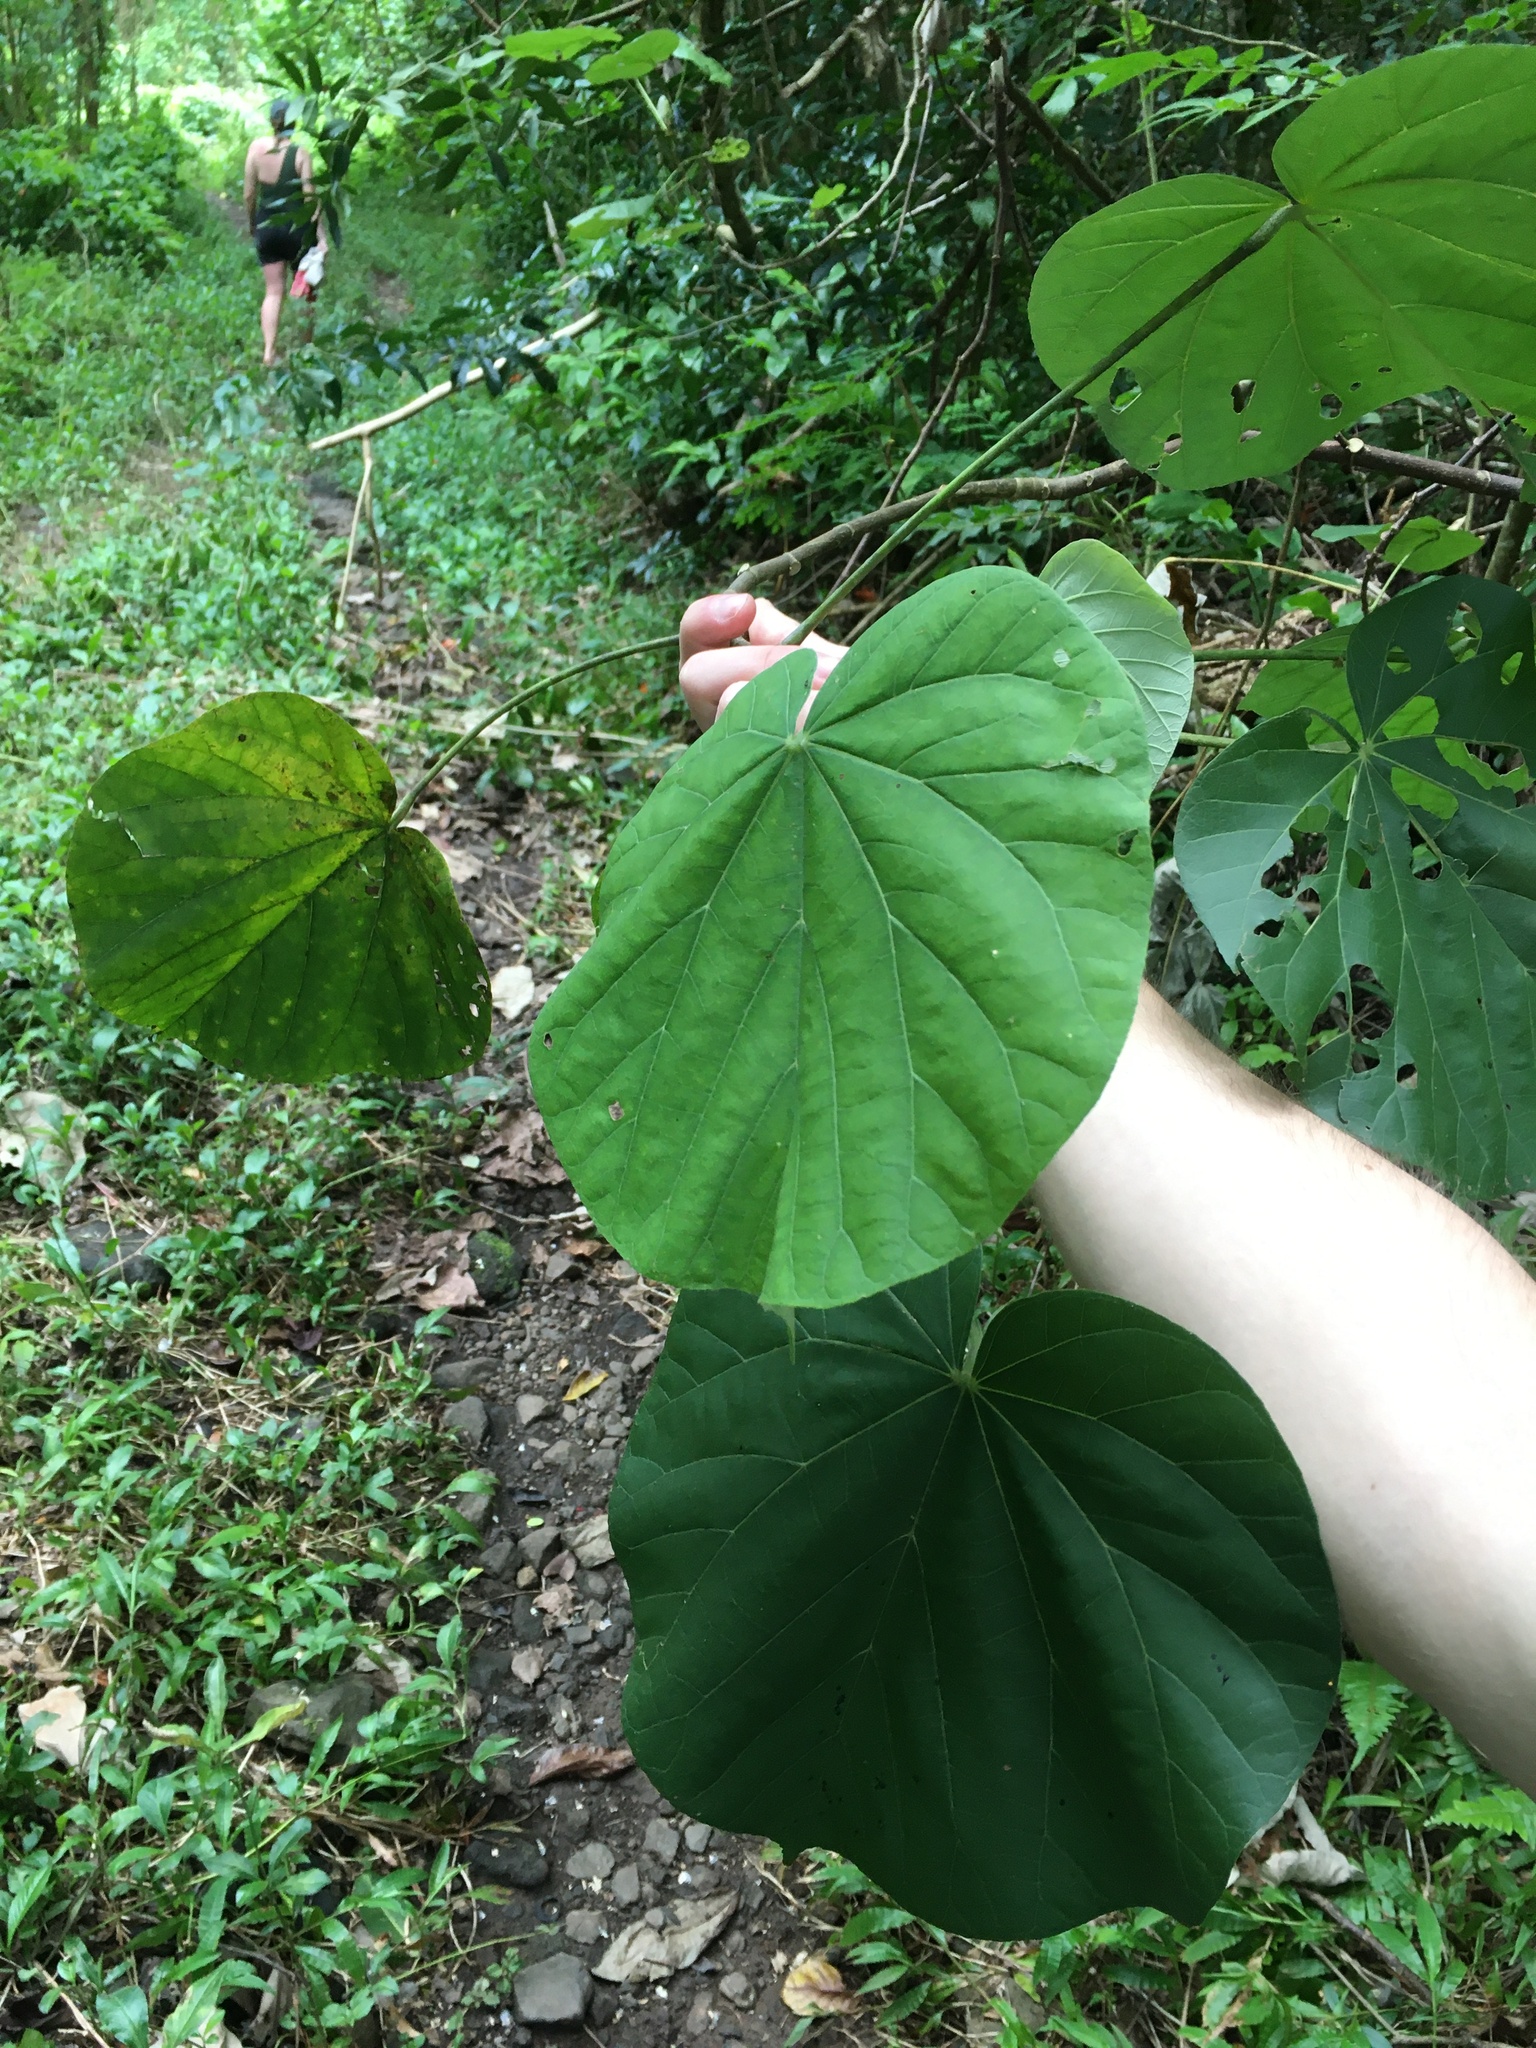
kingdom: Plantae
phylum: Tracheophyta
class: Magnoliopsida
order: Malvales
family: Malvaceae
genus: Talipariti
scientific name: Talipariti tiliaceum
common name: Sea hibiscus
